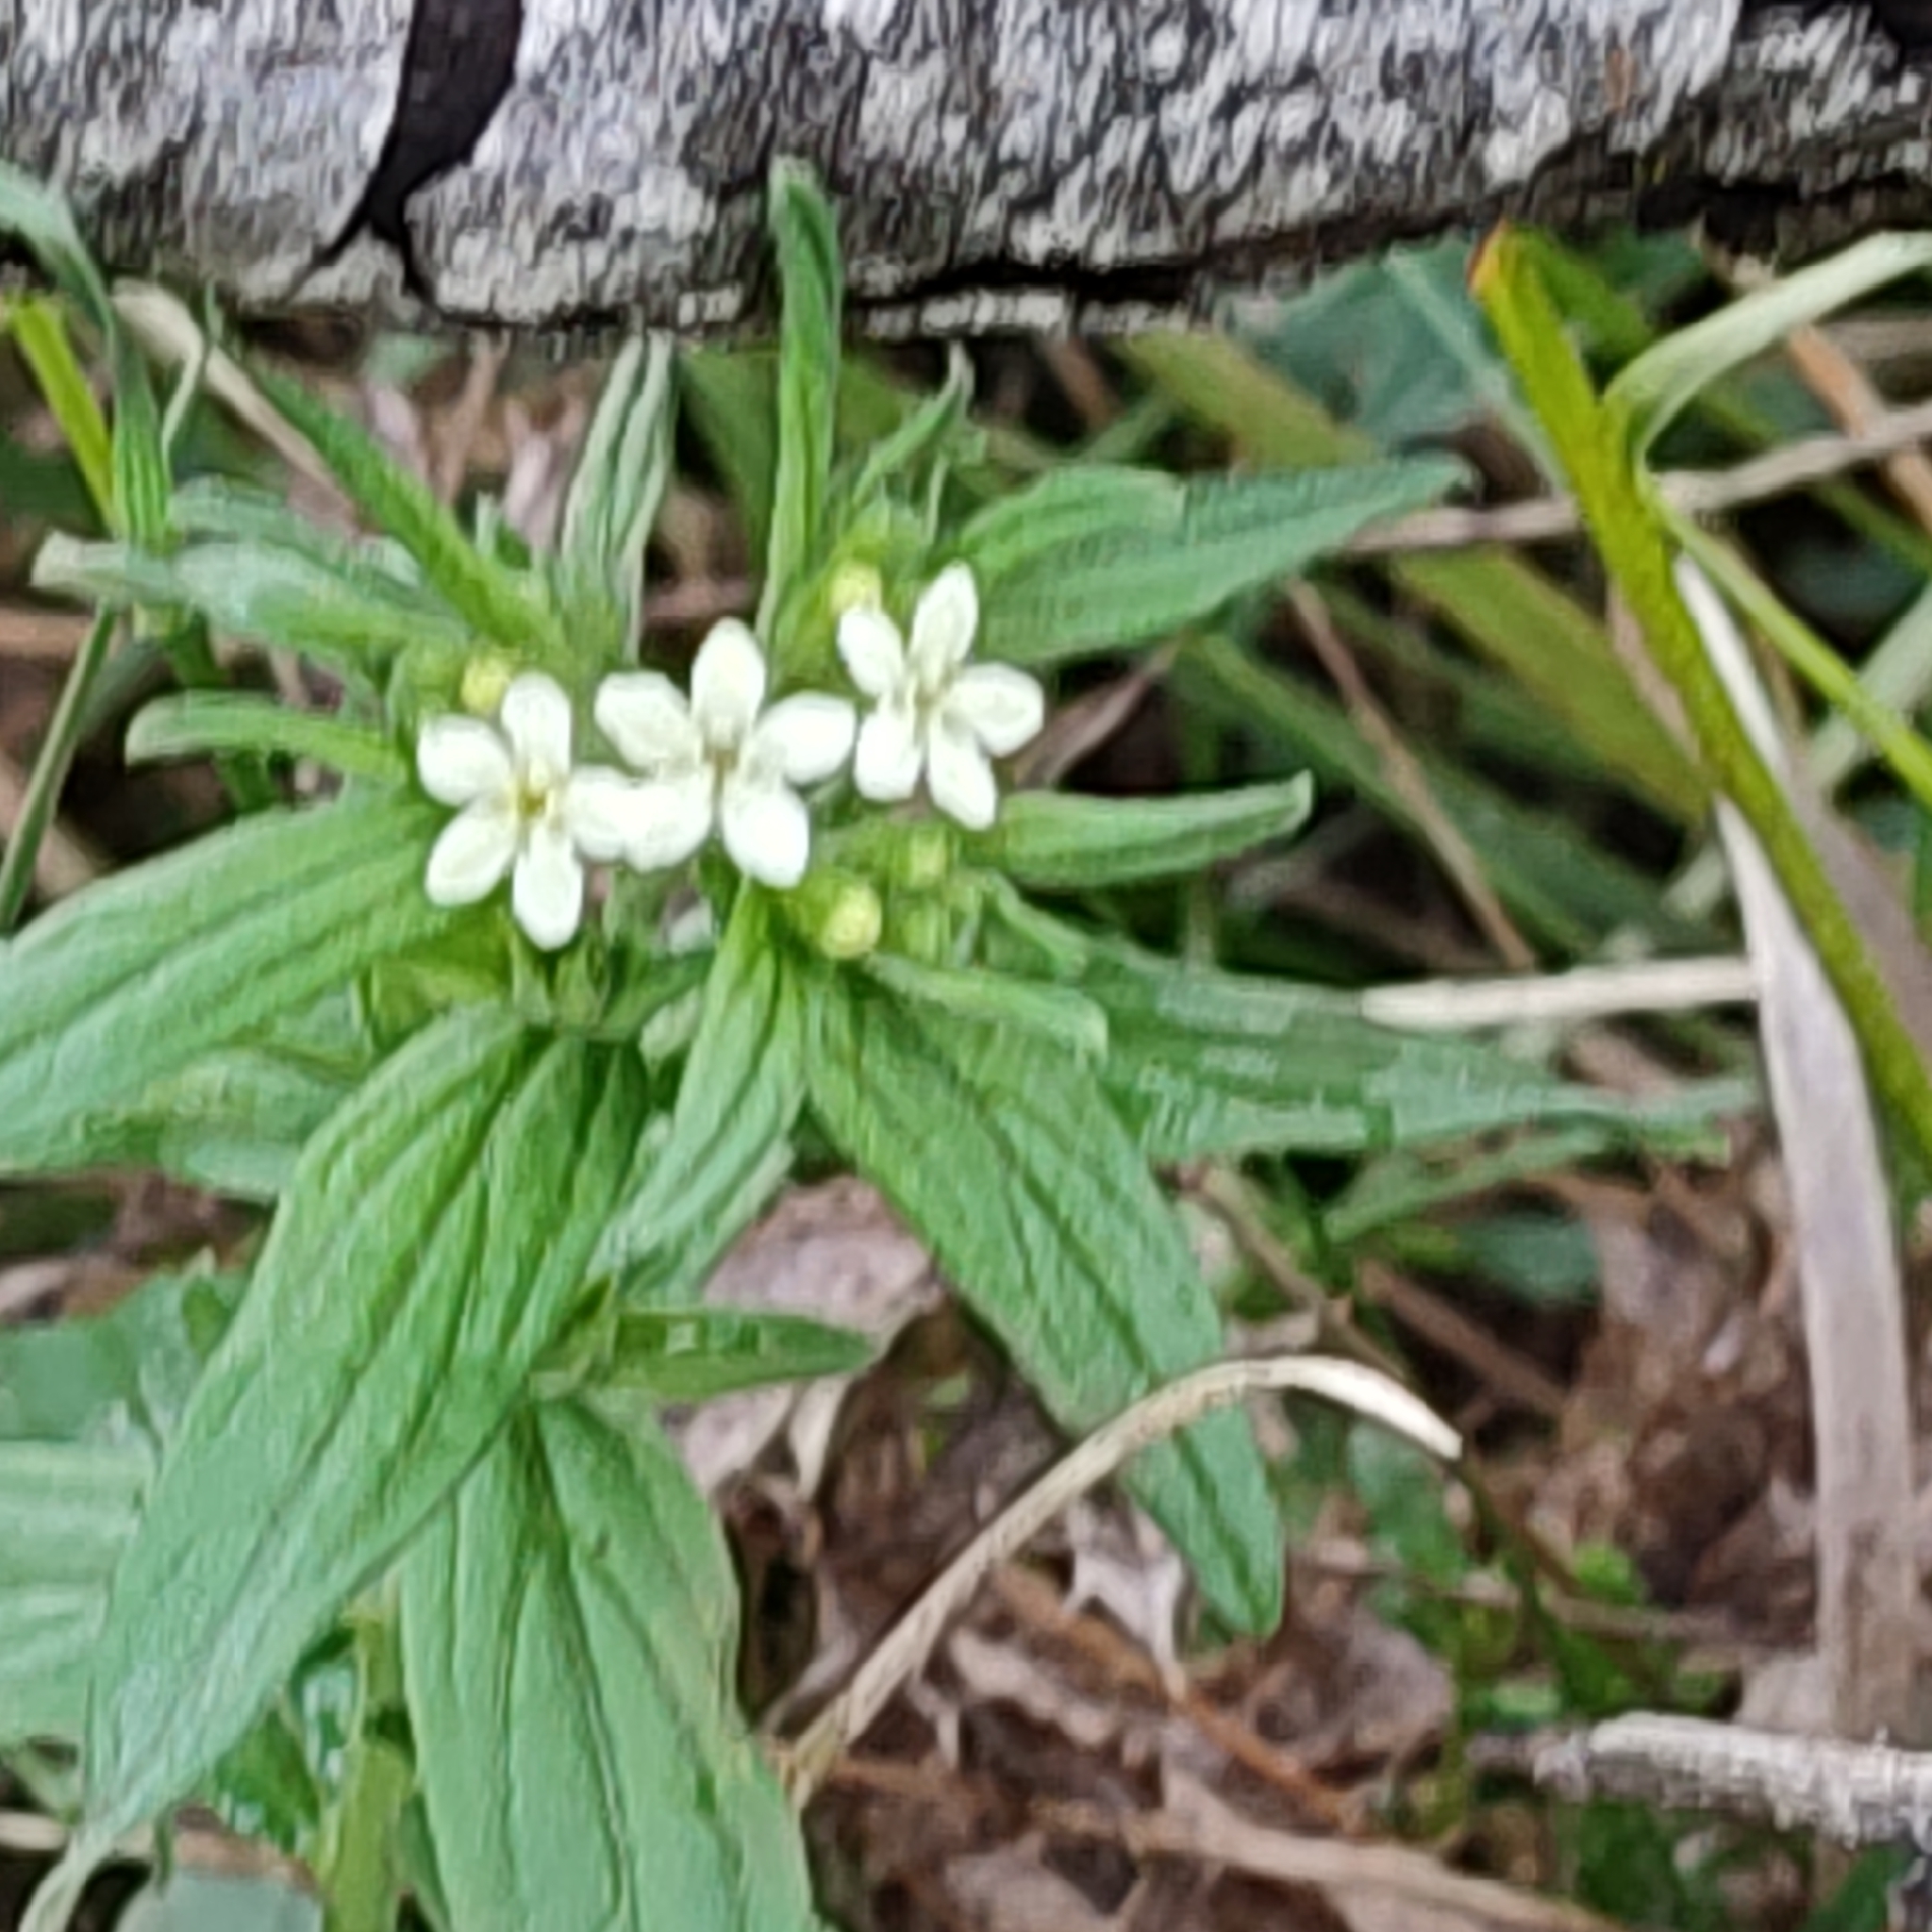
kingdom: Plantae
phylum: Tracheophyta
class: Magnoliopsida
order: Boraginales
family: Boraginaceae
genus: Lithospermum
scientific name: Lithospermum officinale
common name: Common gromwell
